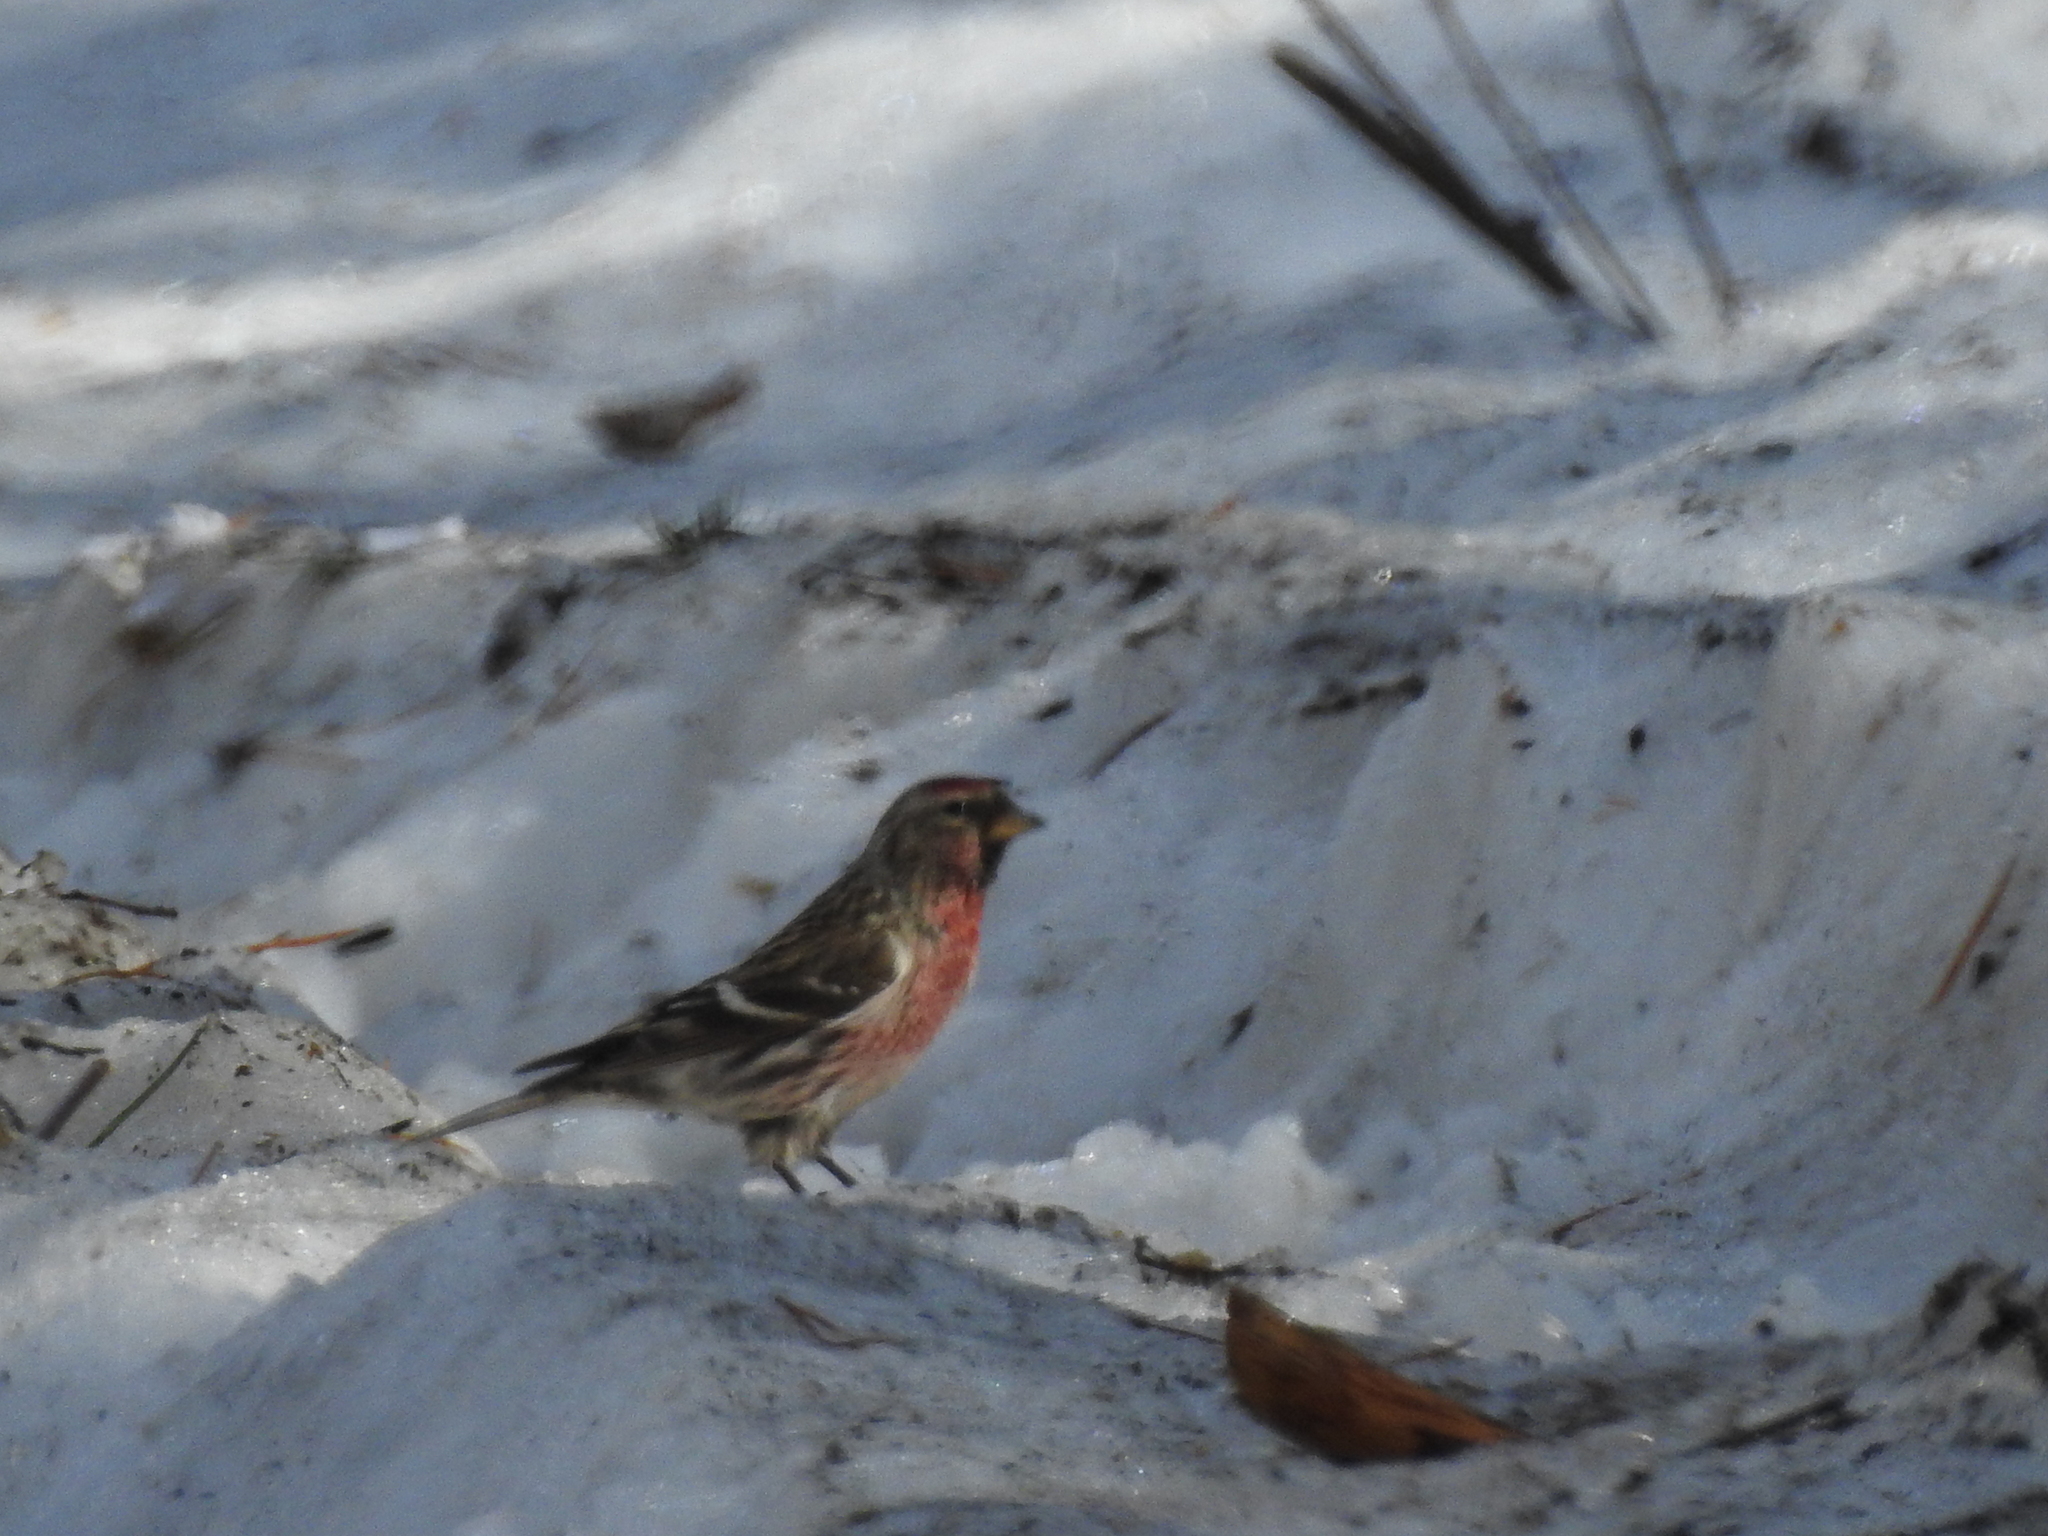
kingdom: Animalia
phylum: Chordata
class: Aves
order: Passeriformes
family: Fringillidae
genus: Acanthis
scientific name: Acanthis flammea
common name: Common redpoll
